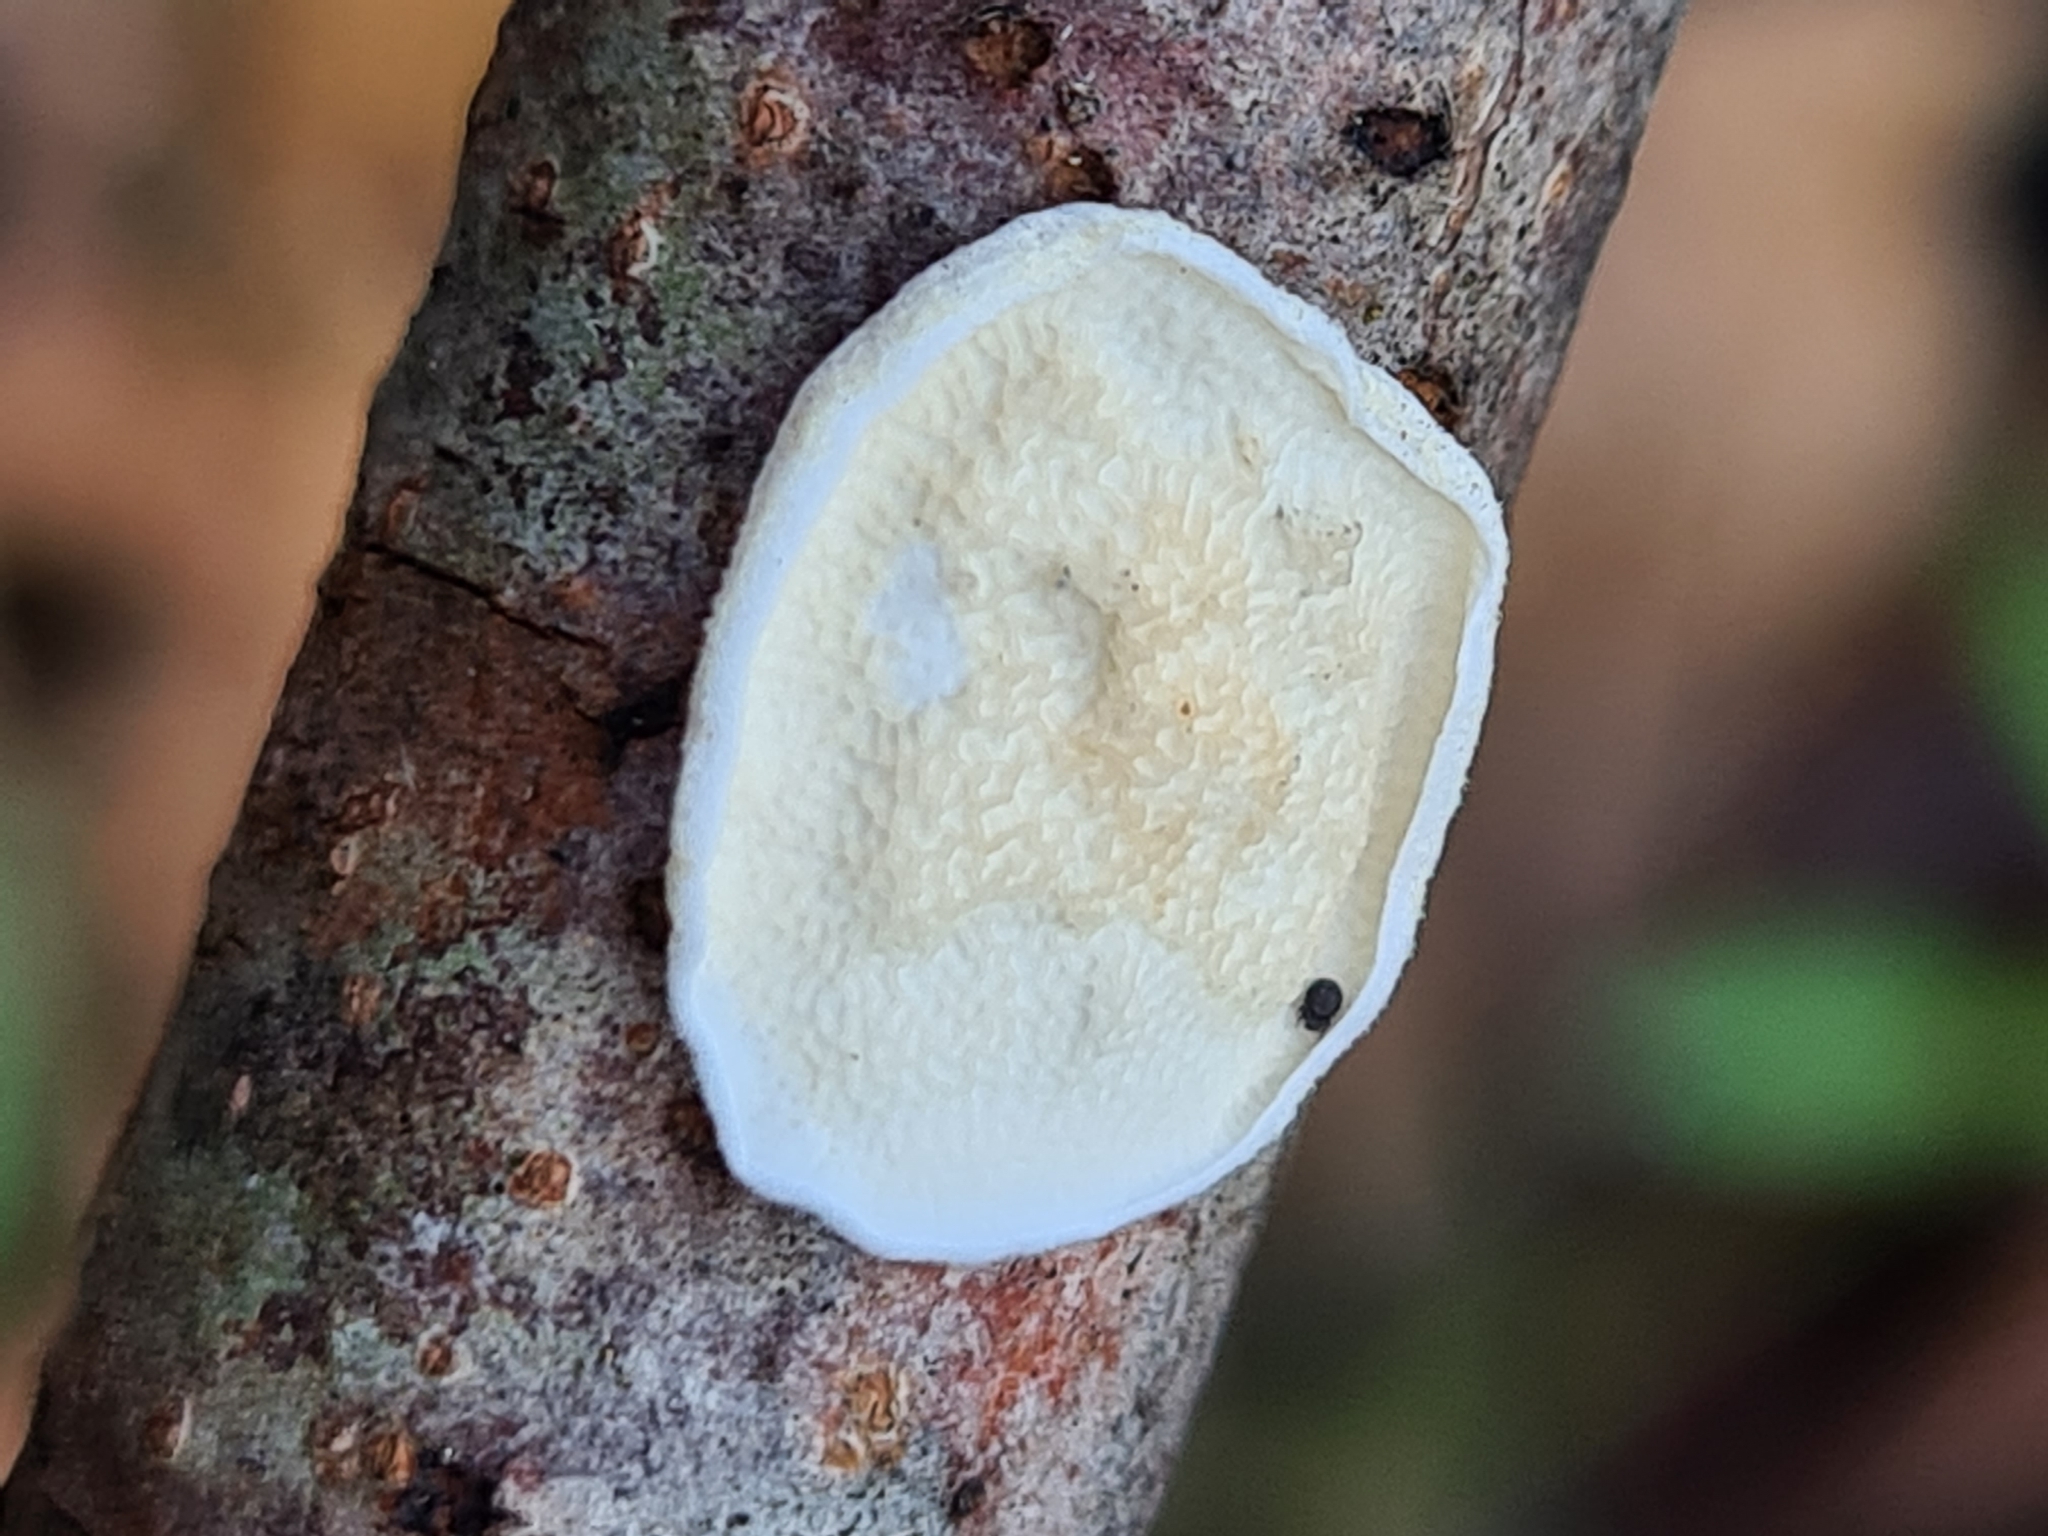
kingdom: Fungi
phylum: Basidiomycota
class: Agaricomycetes
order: Polyporales
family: Irpicaceae
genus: Byssomerulius
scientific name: Byssomerulius corium
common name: Netted crust
